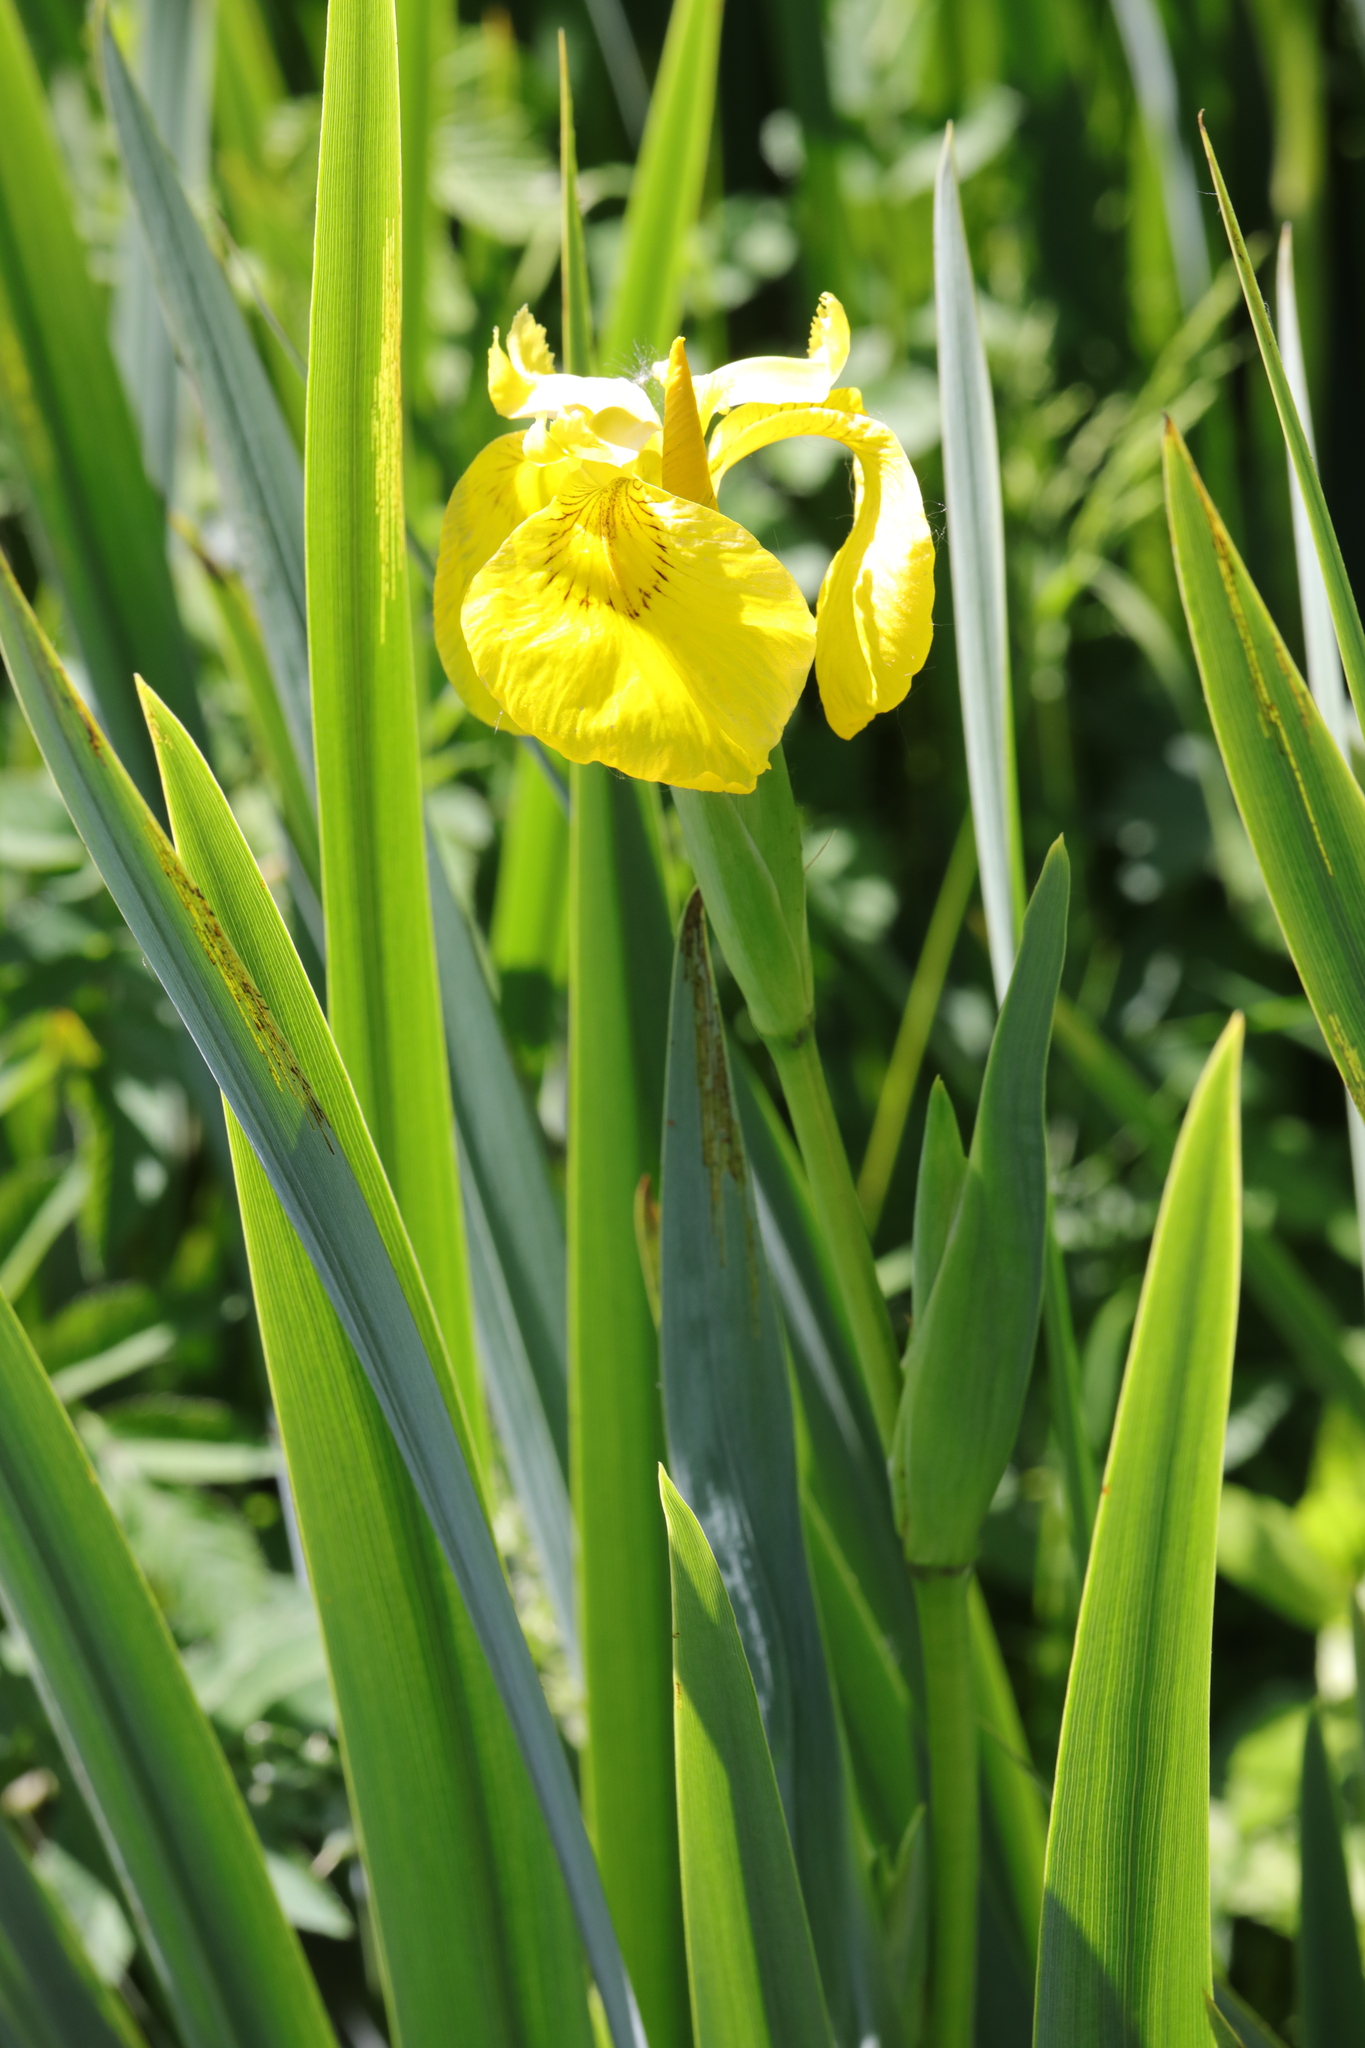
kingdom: Plantae
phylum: Tracheophyta
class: Liliopsida
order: Asparagales
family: Iridaceae
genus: Iris
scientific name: Iris pseudacorus
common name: Yellow flag
